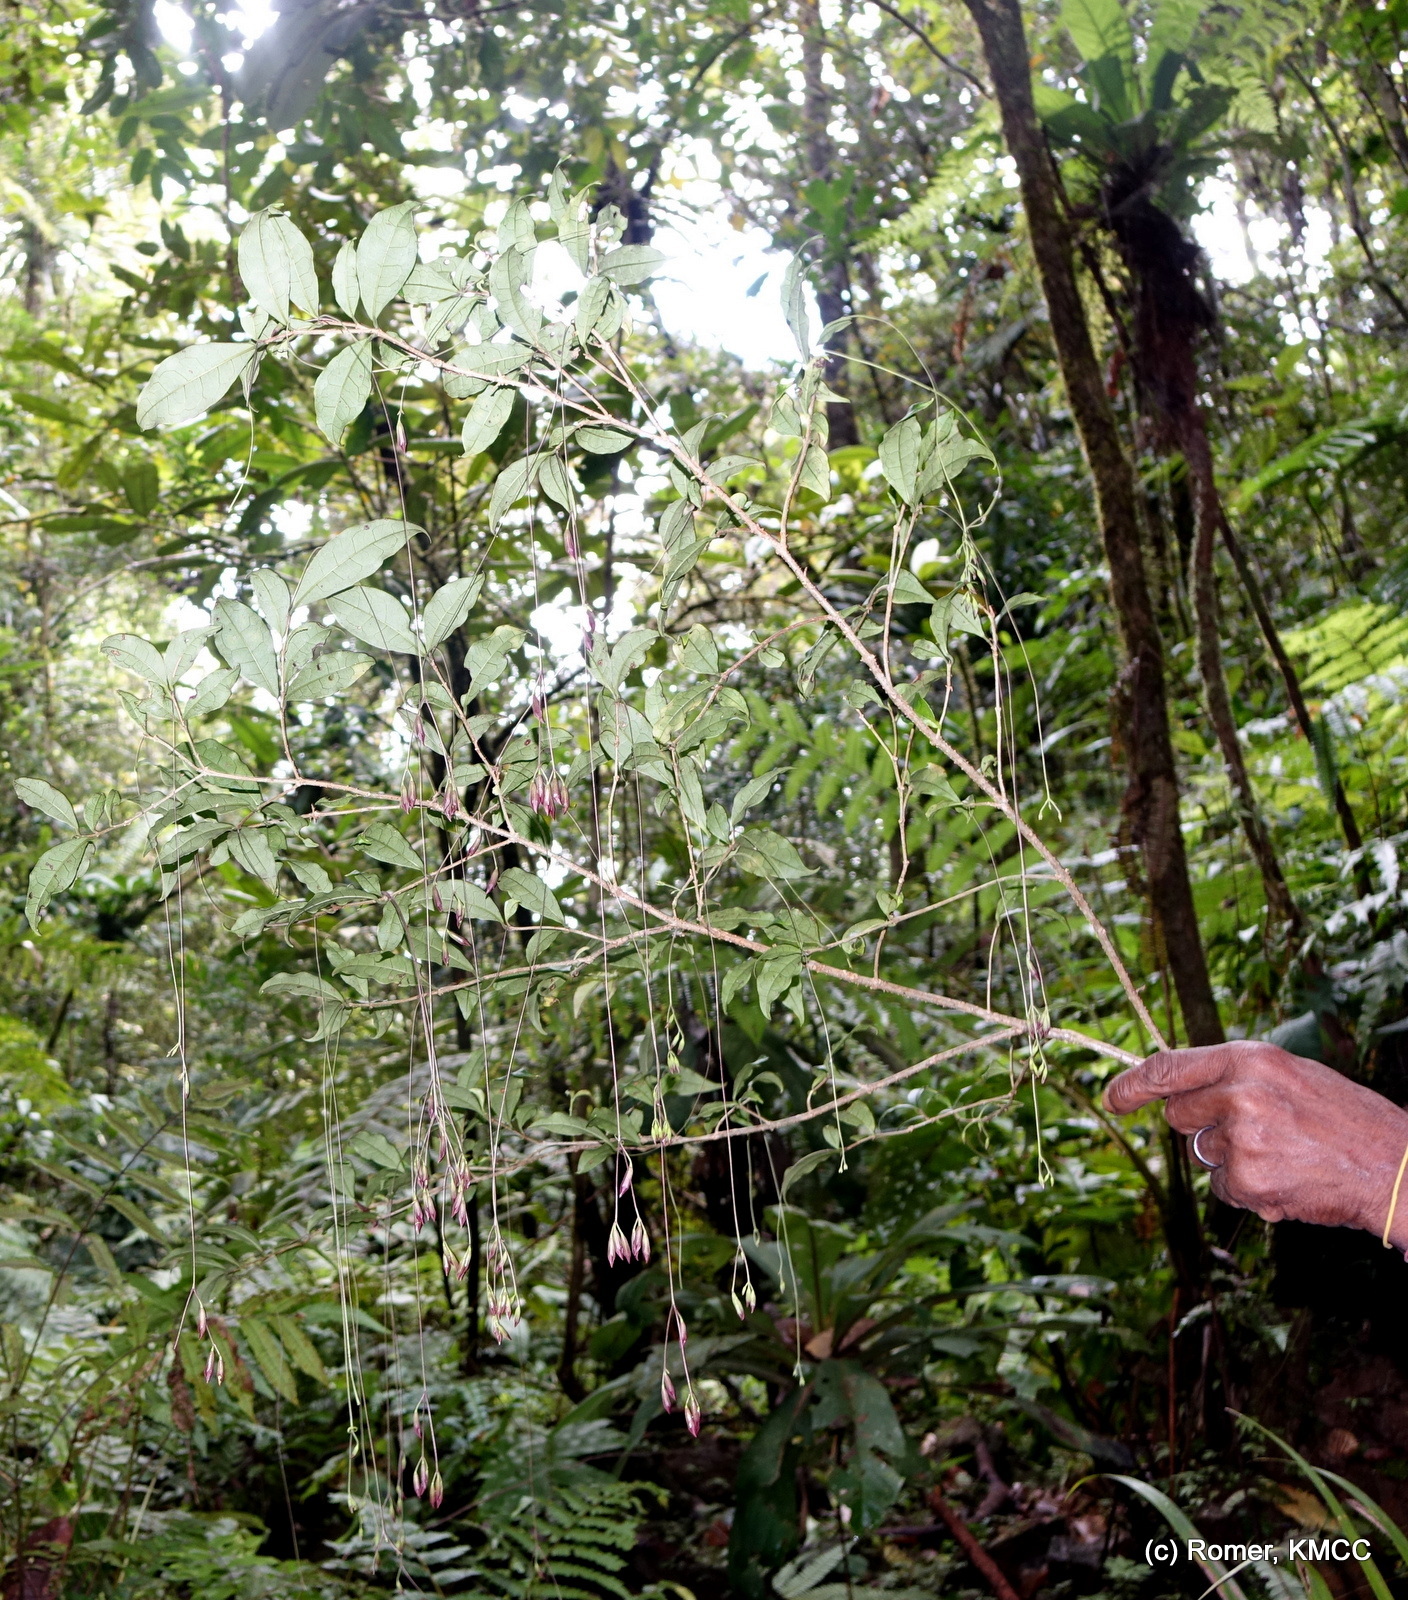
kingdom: Plantae
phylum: Tracheophyta
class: Magnoliopsida
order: Lamiales
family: Lamiaceae
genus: Clerodendrum
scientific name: Clerodendrum filipes
